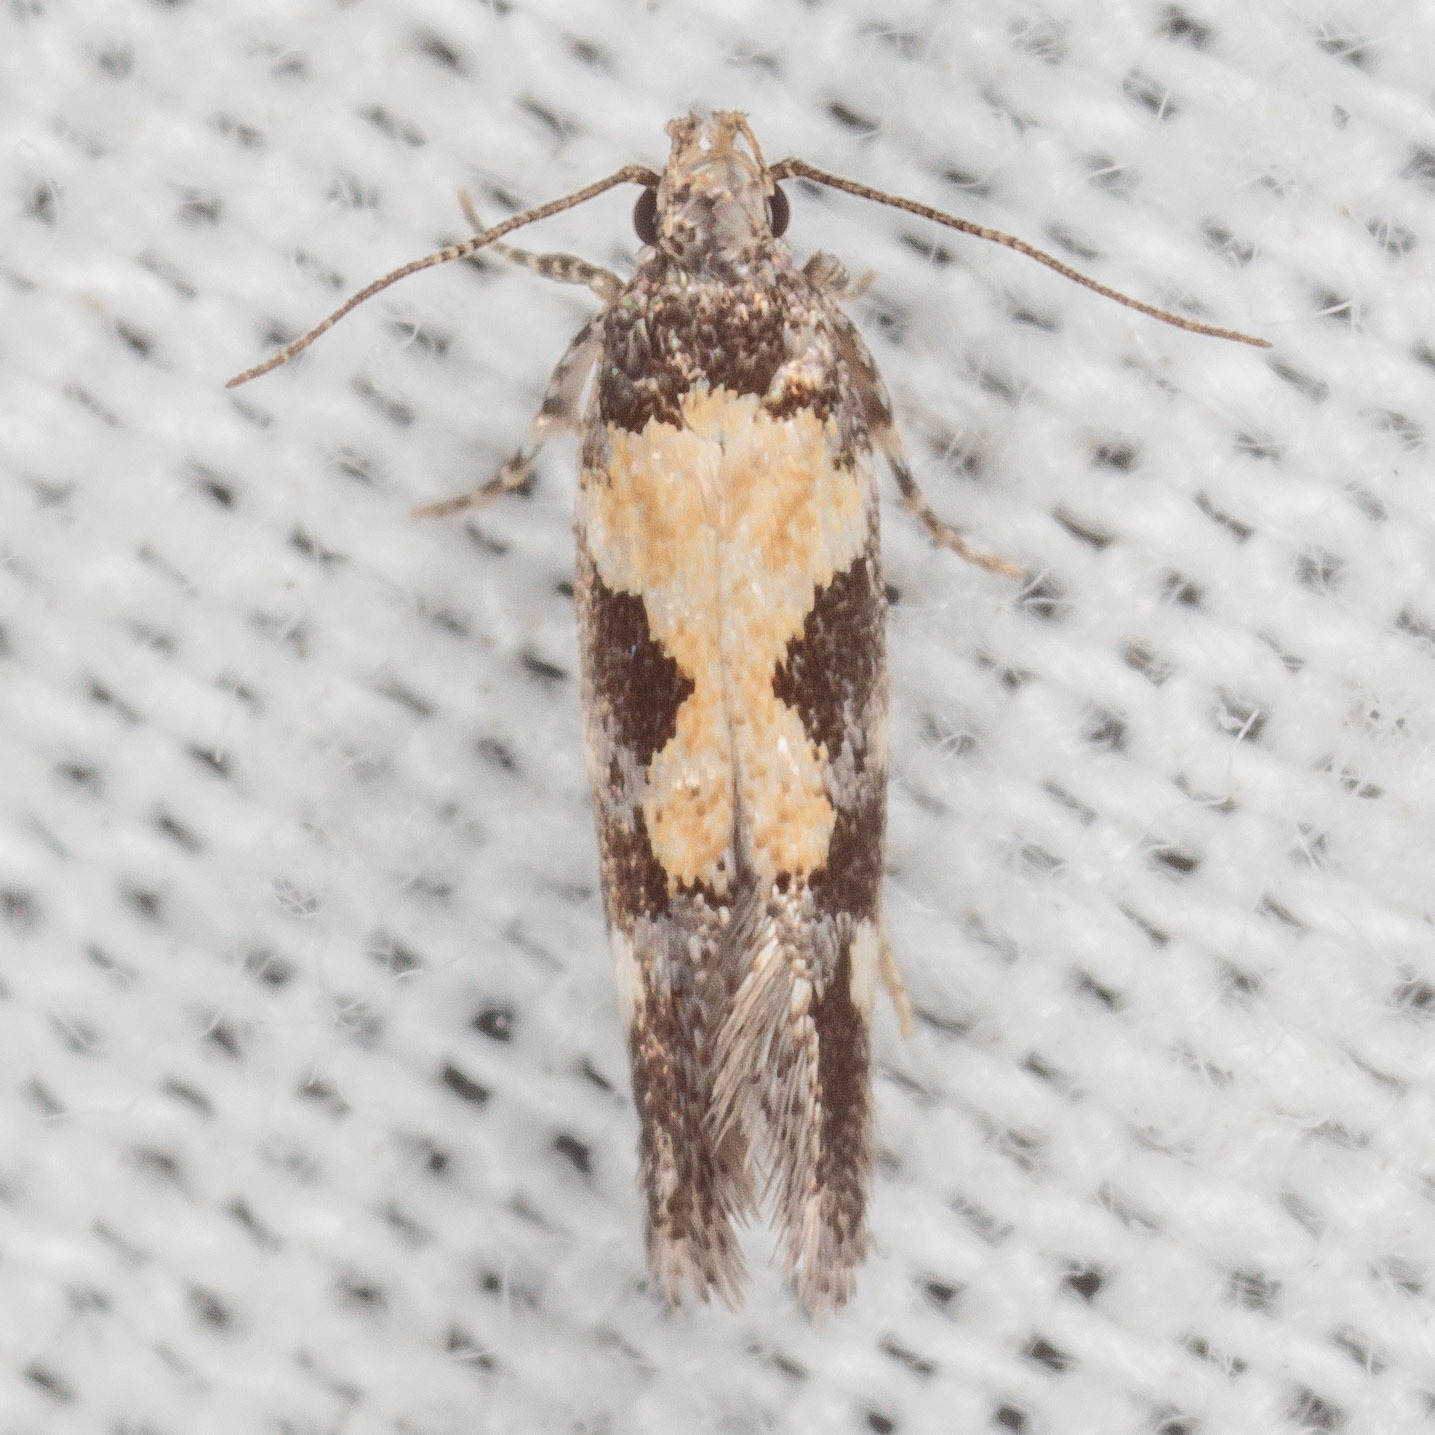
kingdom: Animalia
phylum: Arthropoda
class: Insecta
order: Lepidoptera
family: Gelechiidae
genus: Stegasta
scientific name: Stegasta bosqueella
